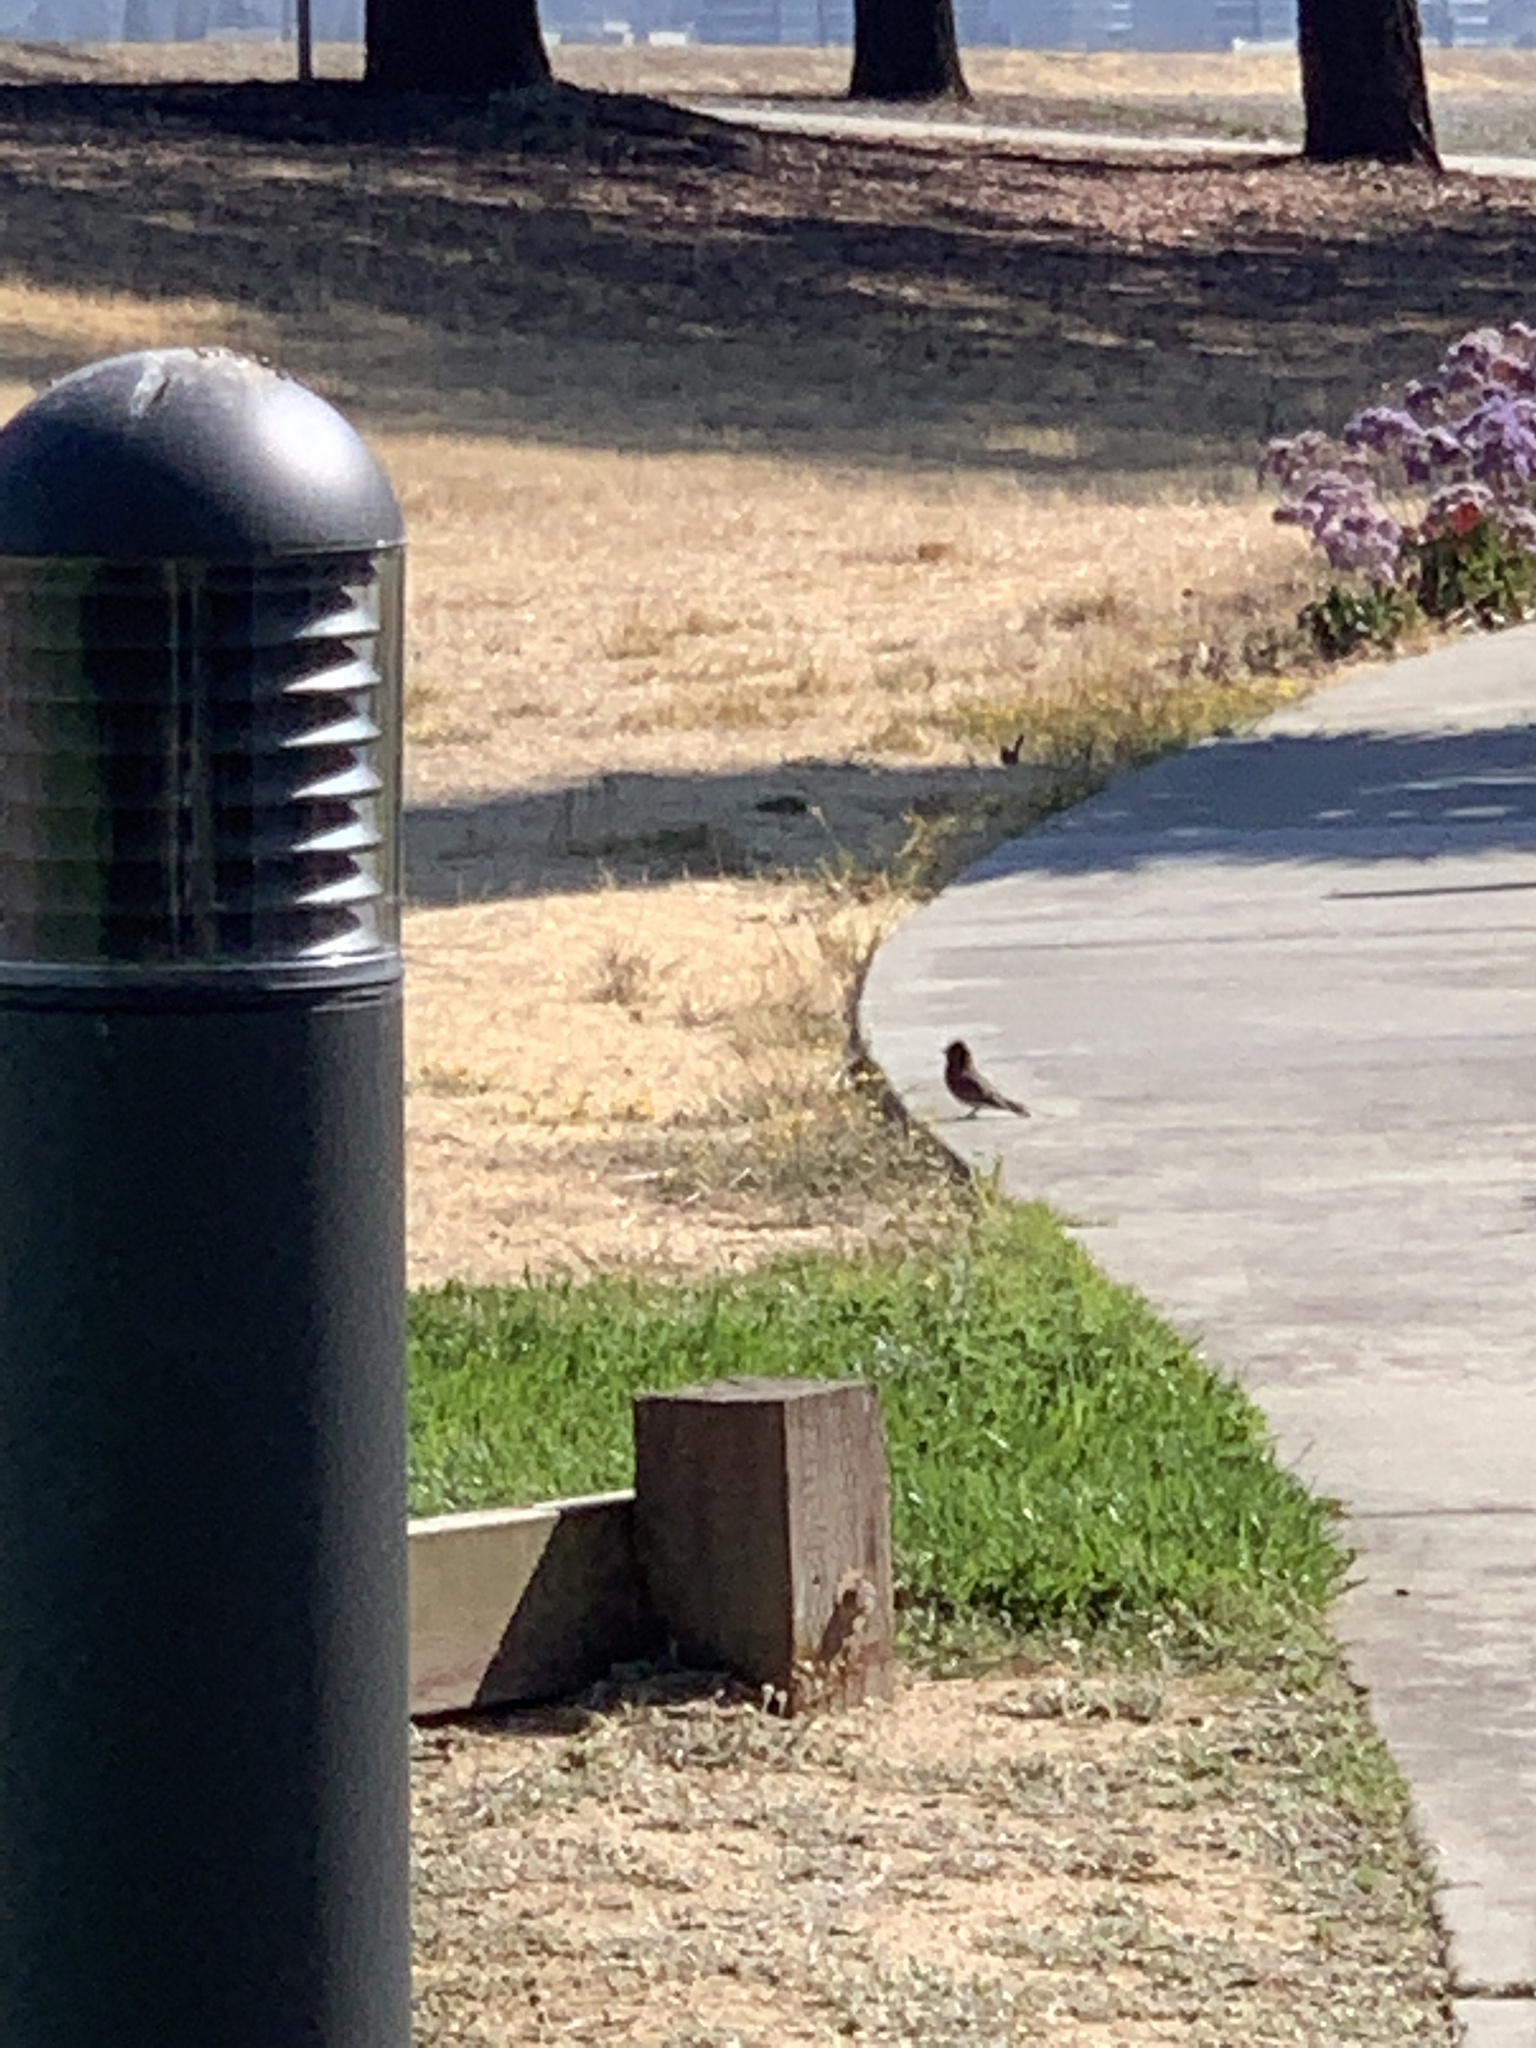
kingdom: Animalia
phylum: Chordata
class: Aves
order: Passeriformes
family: Tyrannidae
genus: Sayornis
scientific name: Sayornis nigricans
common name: Black phoebe
